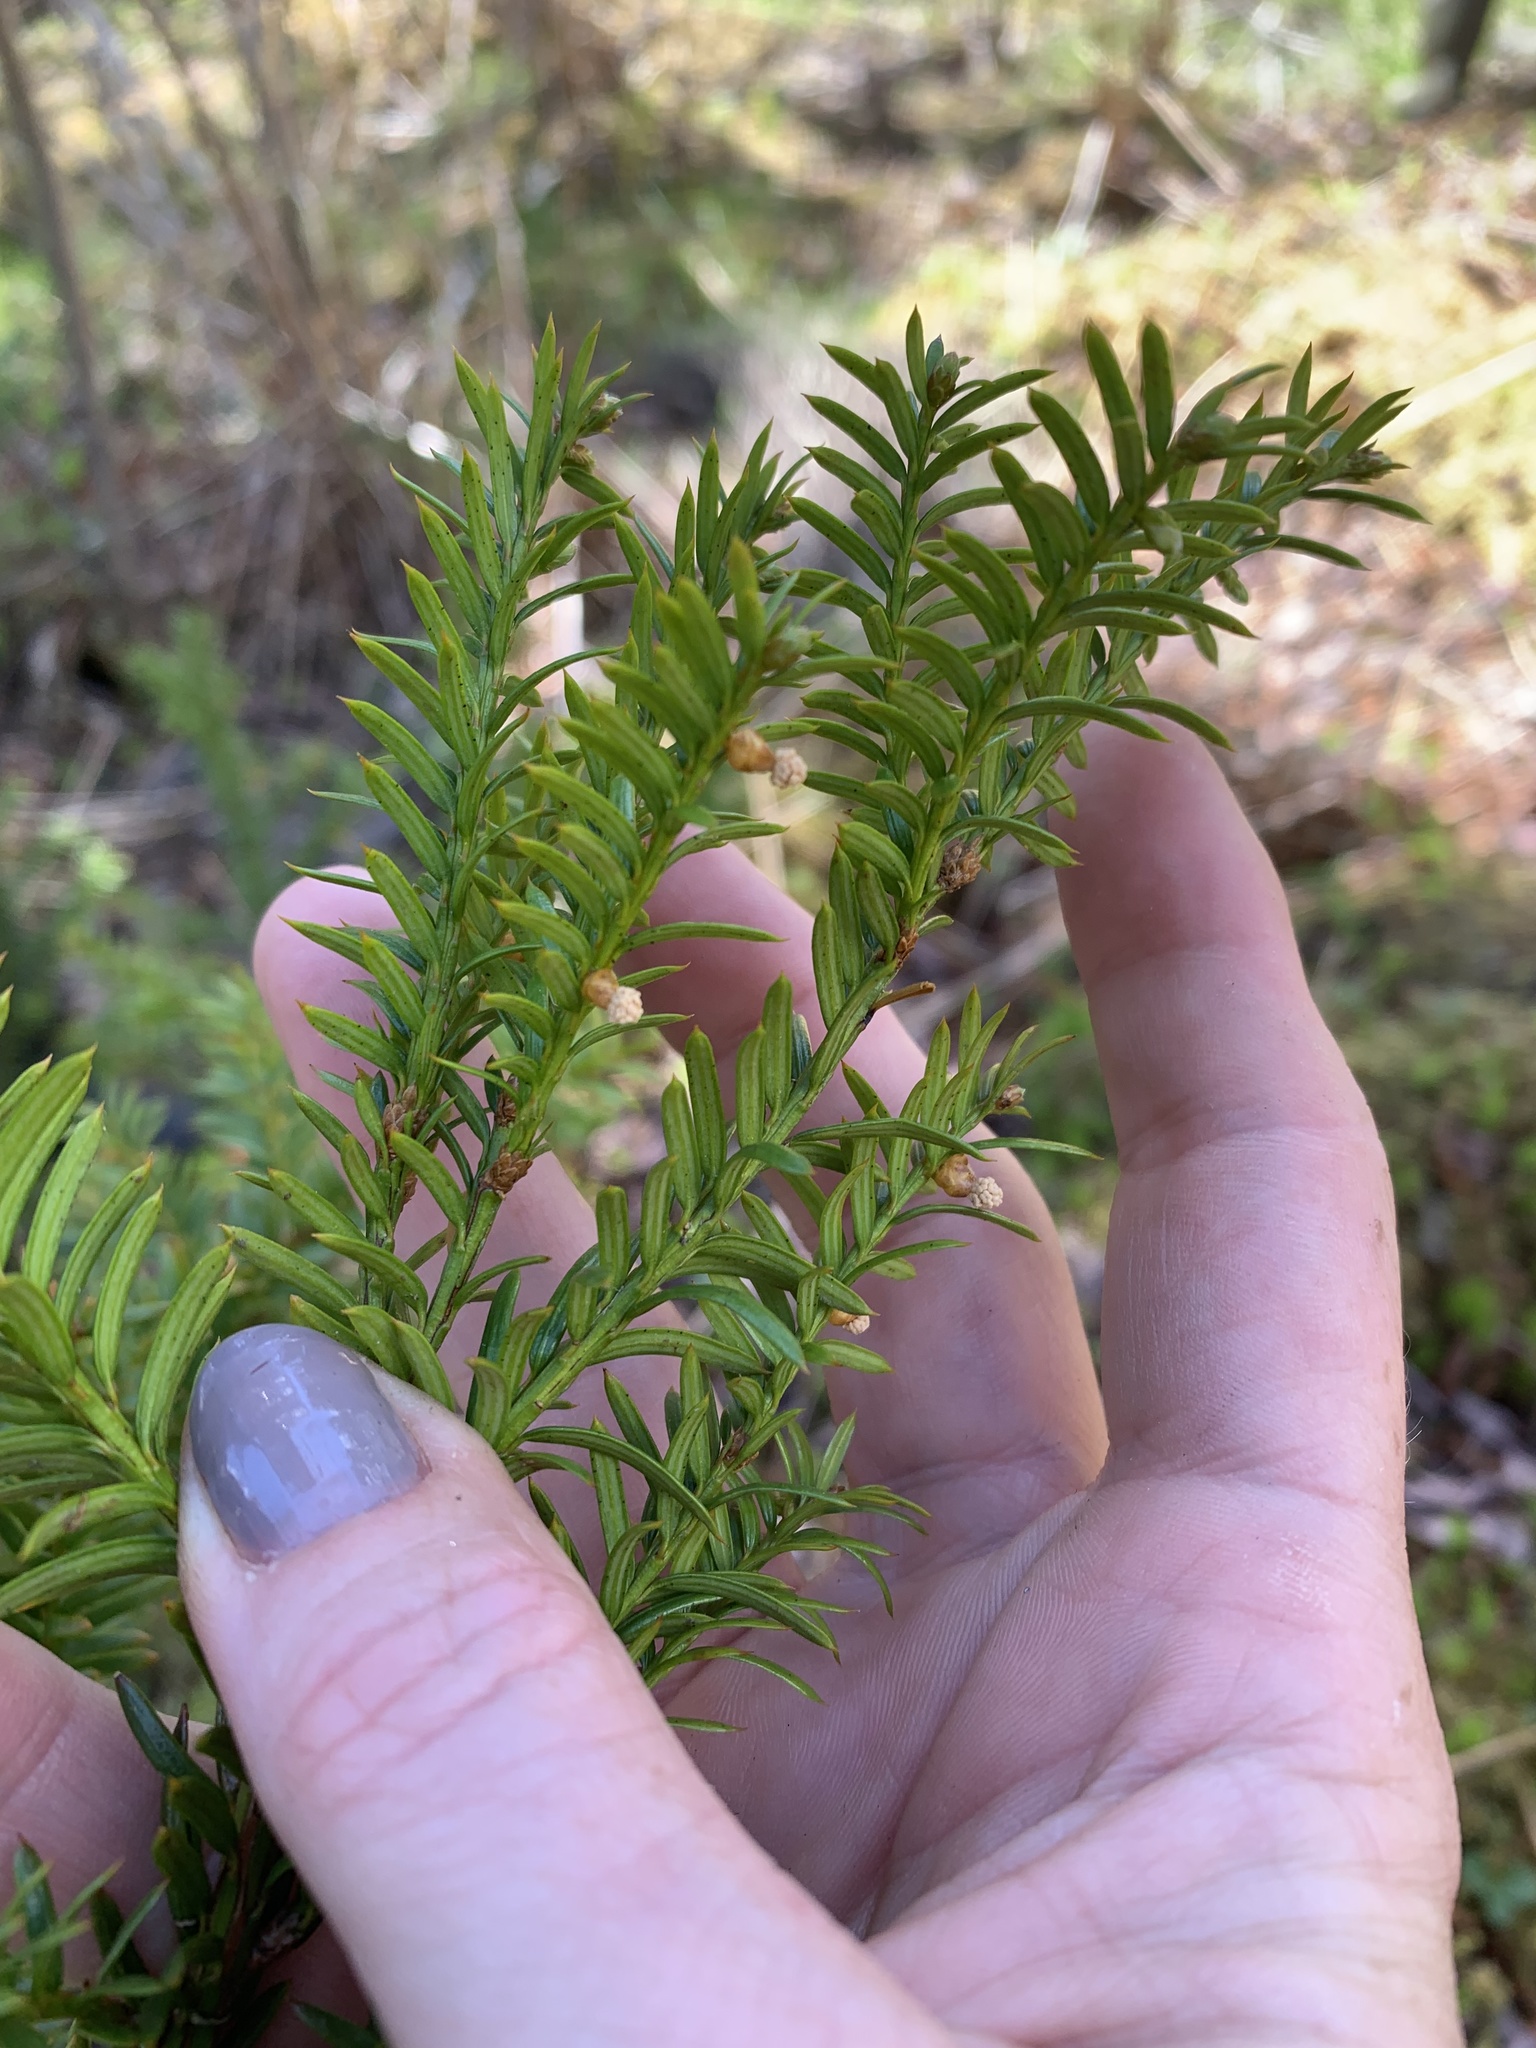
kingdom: Plantae
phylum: Tracheophyta
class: Pinopsida
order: Pinales
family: Taxaceae
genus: Taxus
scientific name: Taxus canadensis
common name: American yew
